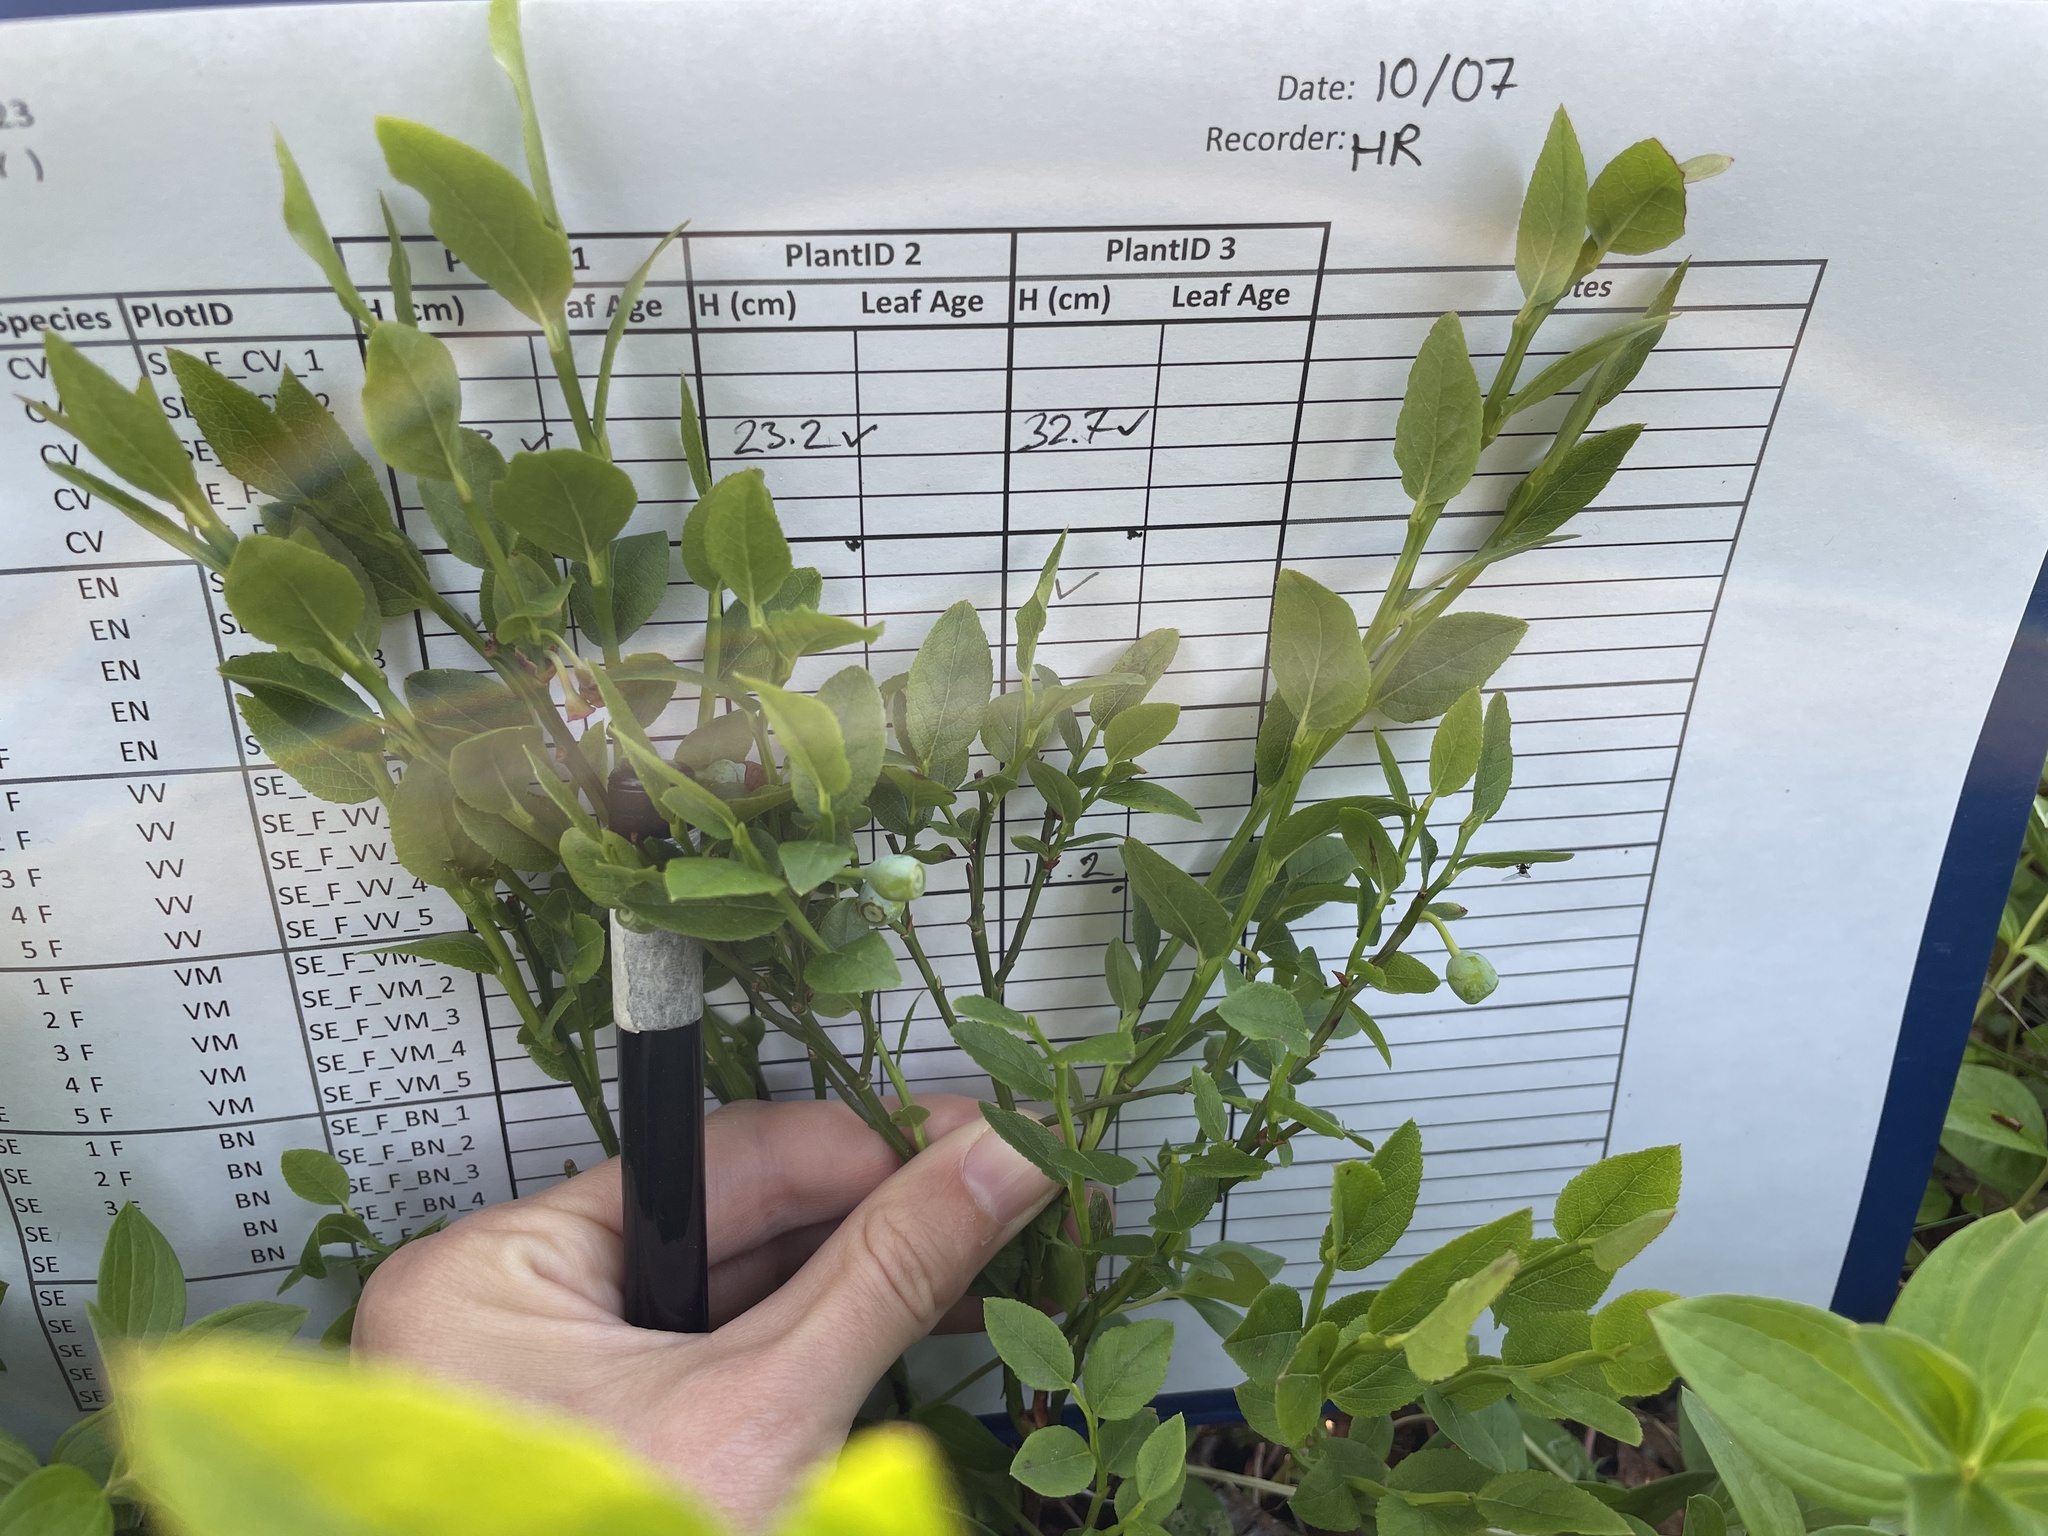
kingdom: Plantae
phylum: Tracheophyta
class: Magnoliopsida
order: Ericales
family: Ericaceae
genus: Vaccinium
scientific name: Vaccinium myrtillus
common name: Bilberry
